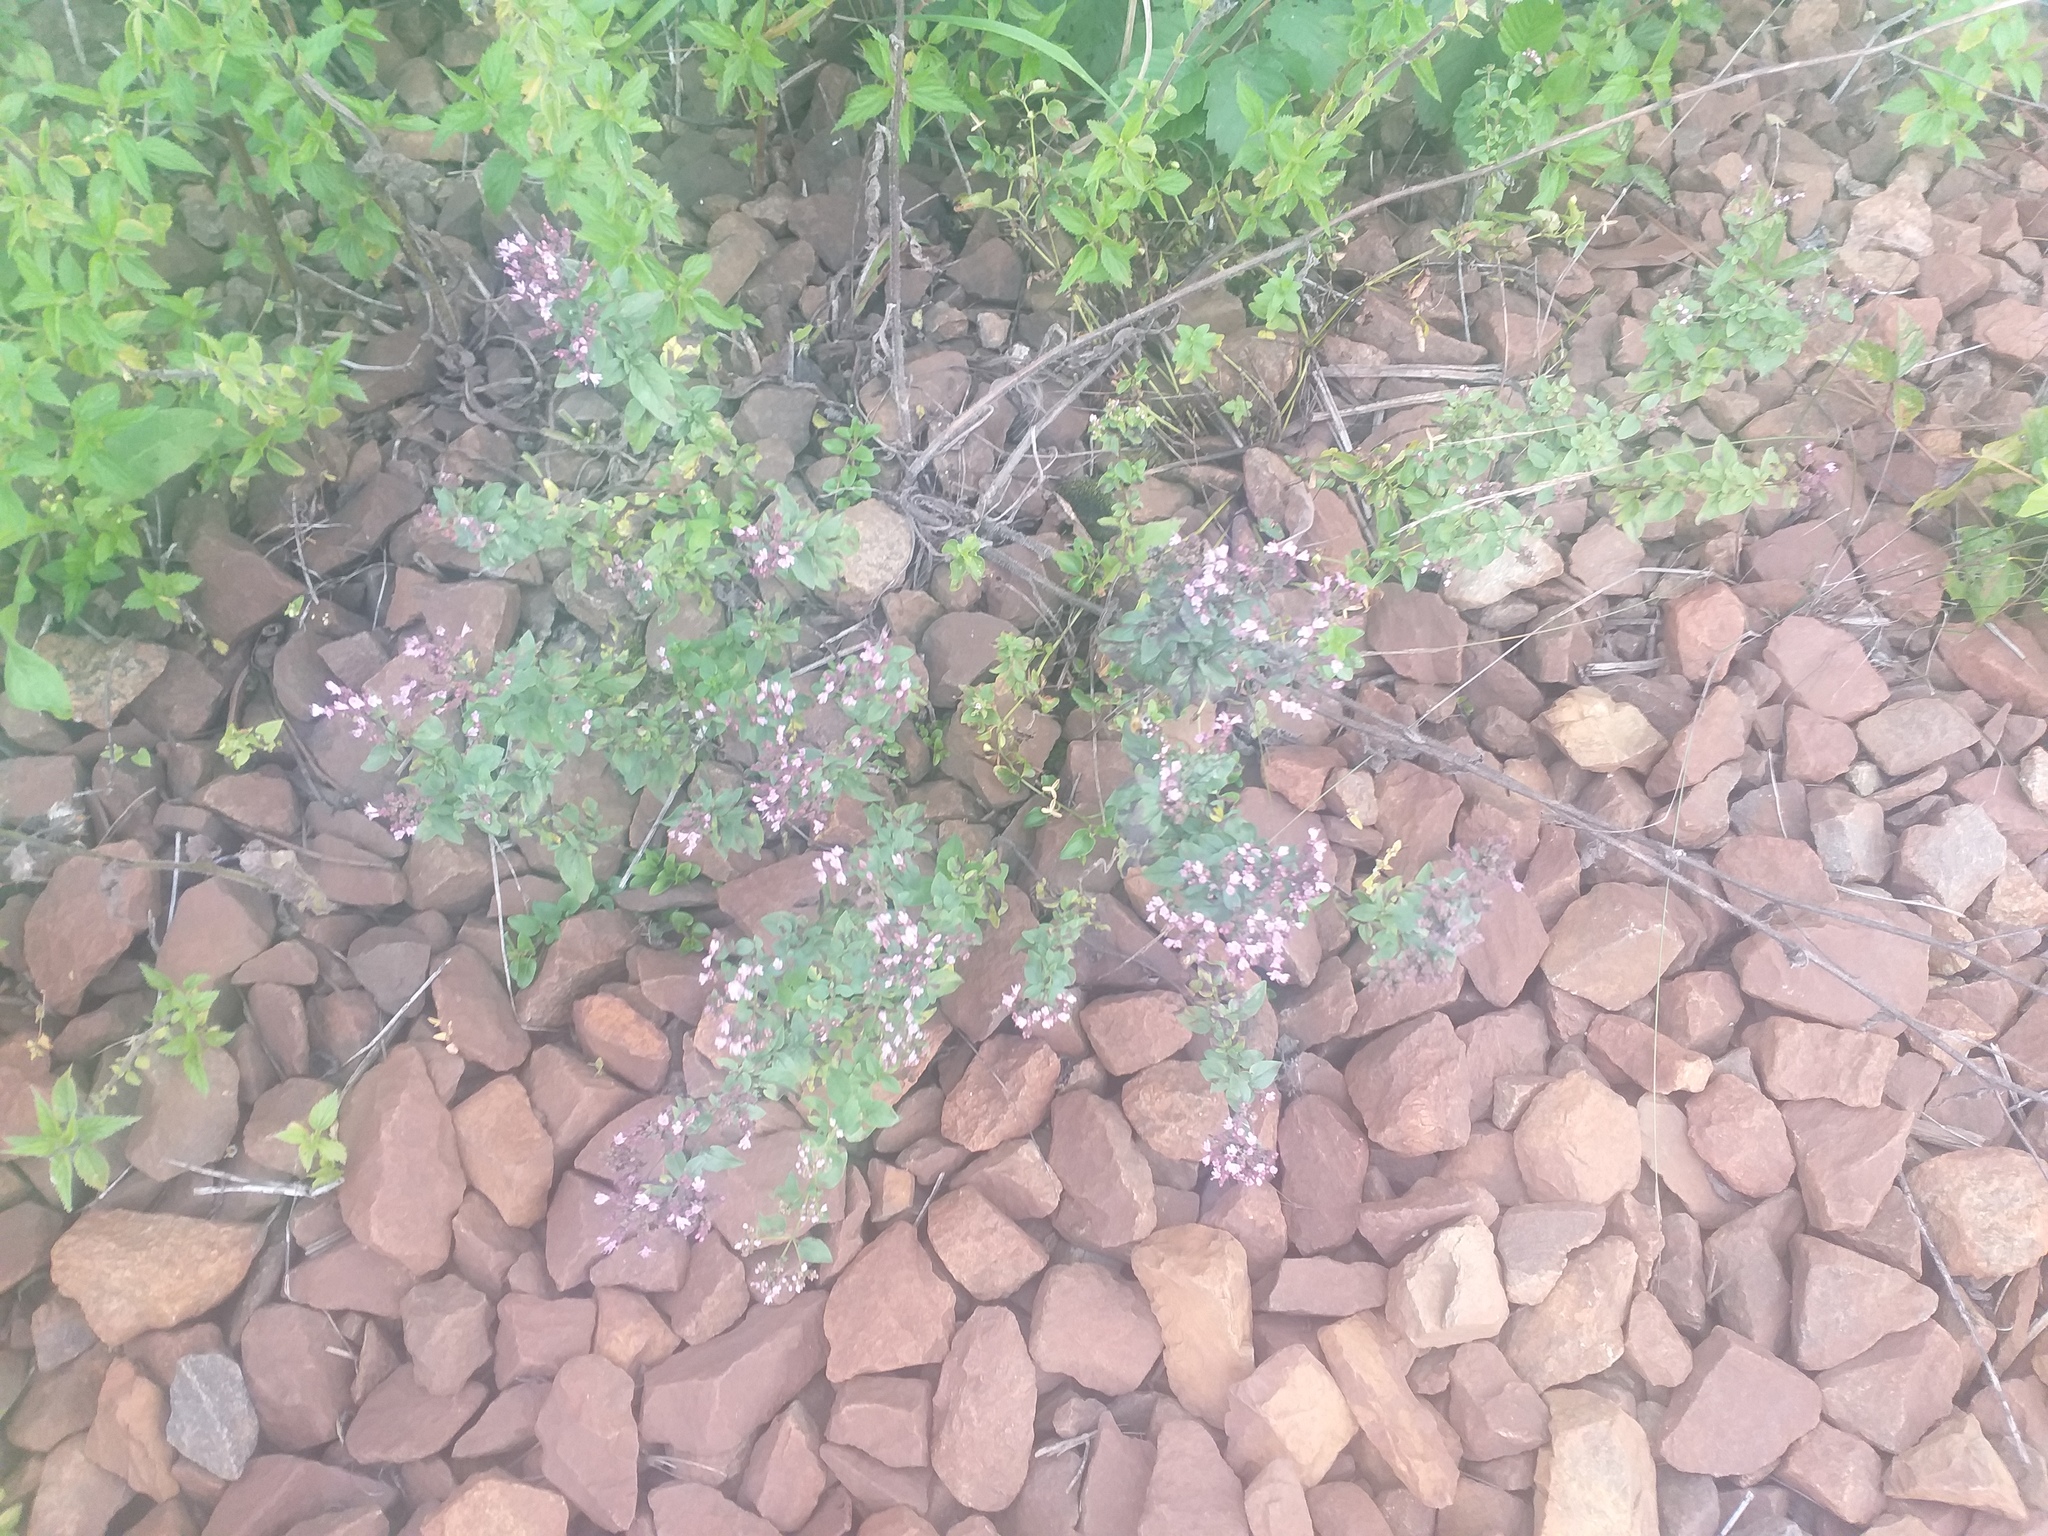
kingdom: Plantae
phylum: Tracheophyta
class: Magnoliopsida
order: Lamiales
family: Lamiaceae
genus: Origanum
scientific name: Origanum vulgare
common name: Wild marjoram
